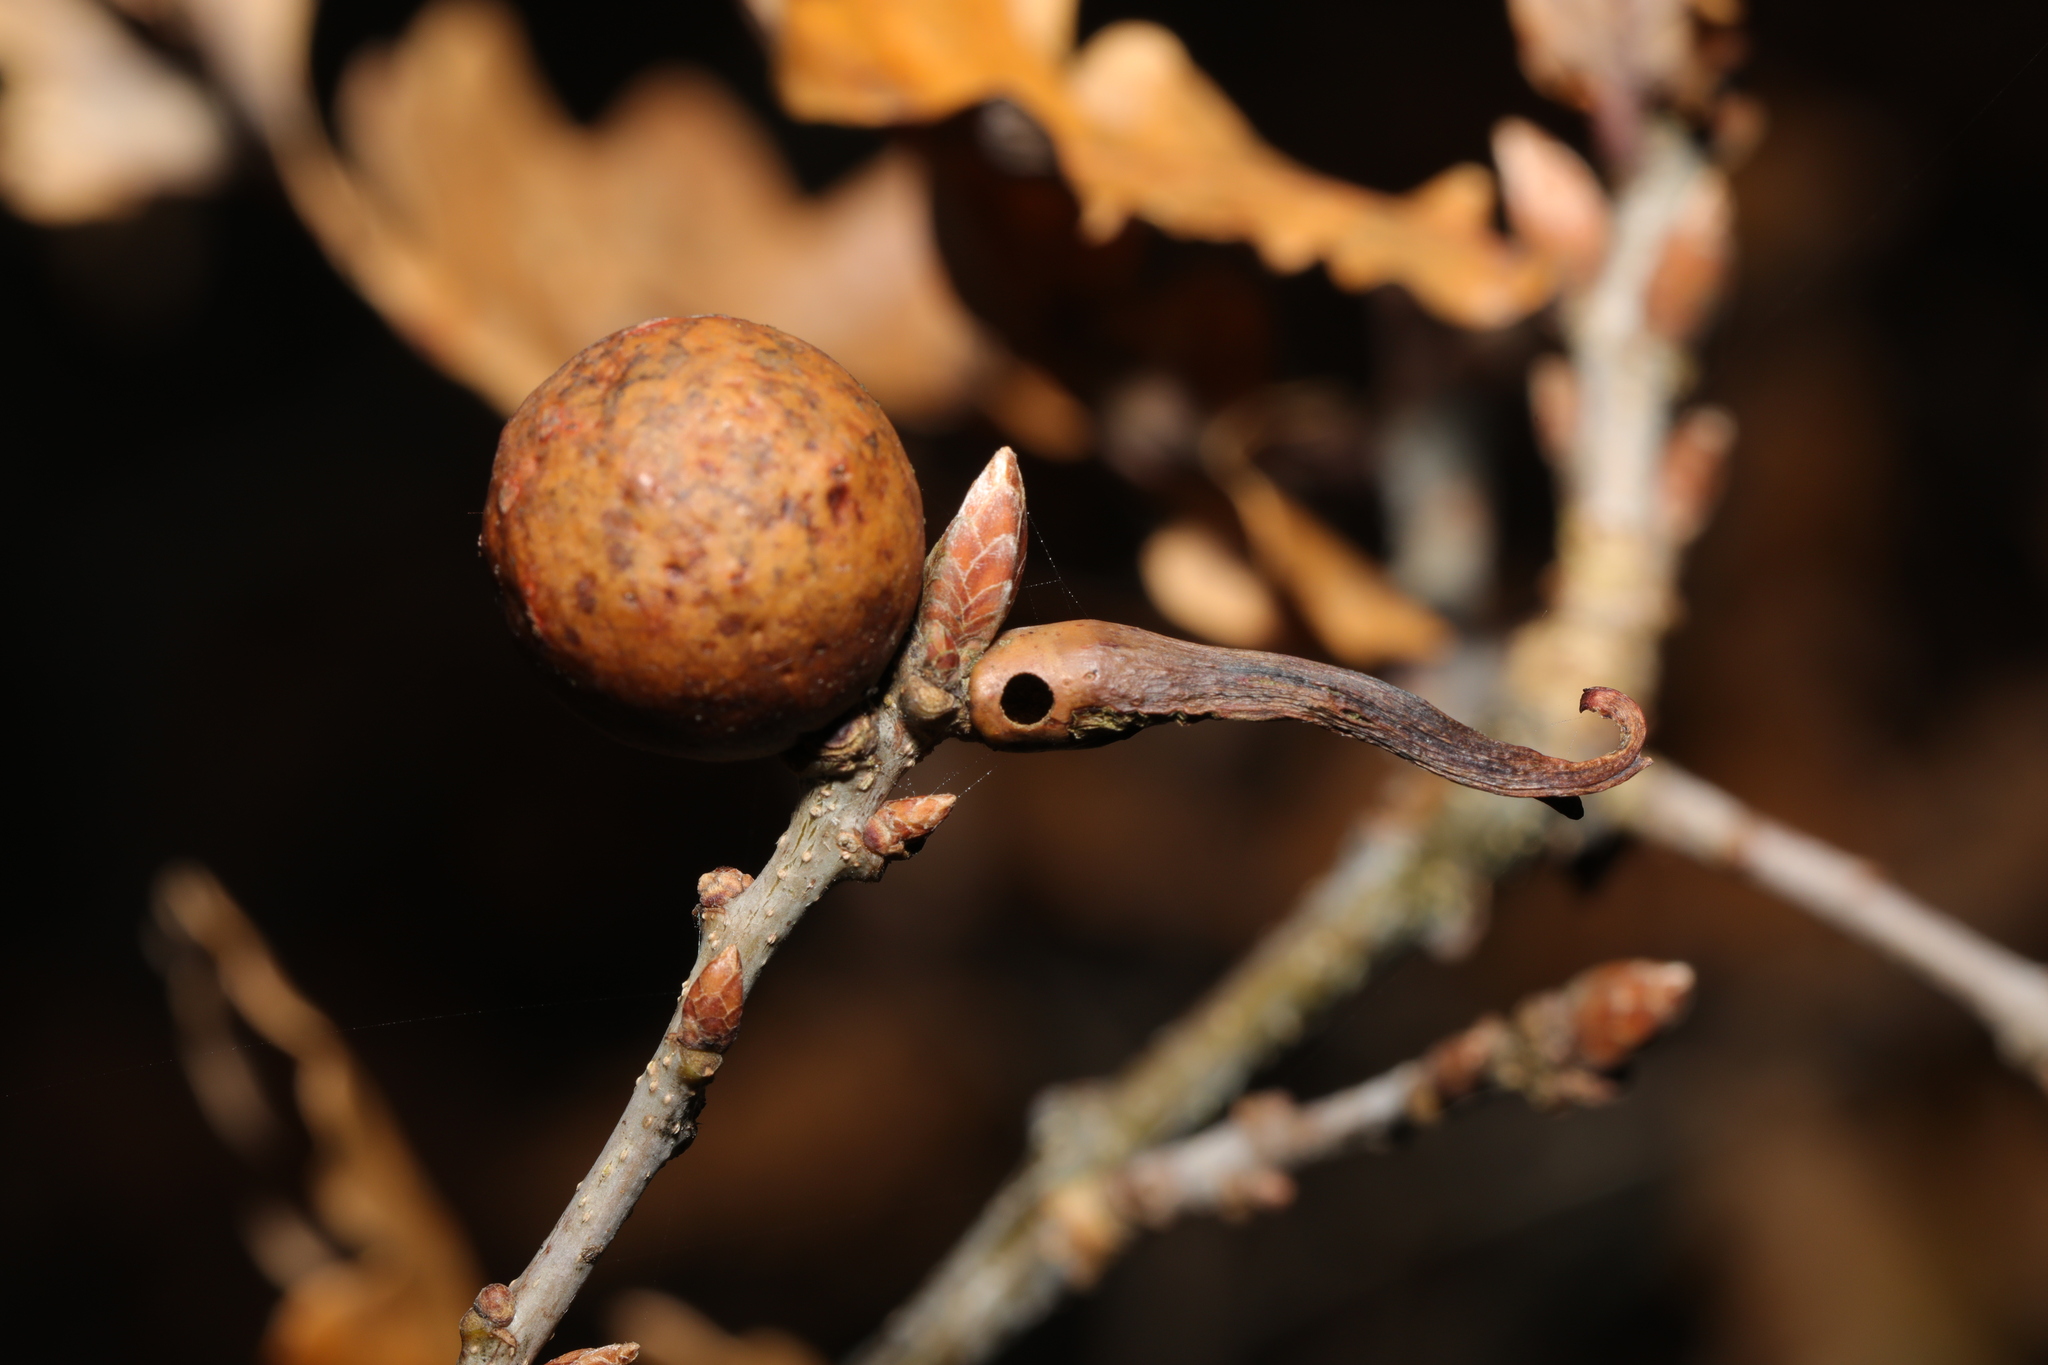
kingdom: Animalia
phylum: Arthropoda
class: Insecta
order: Hymenoptera
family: Cynipidae
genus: Andricus
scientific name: Andricus aries
